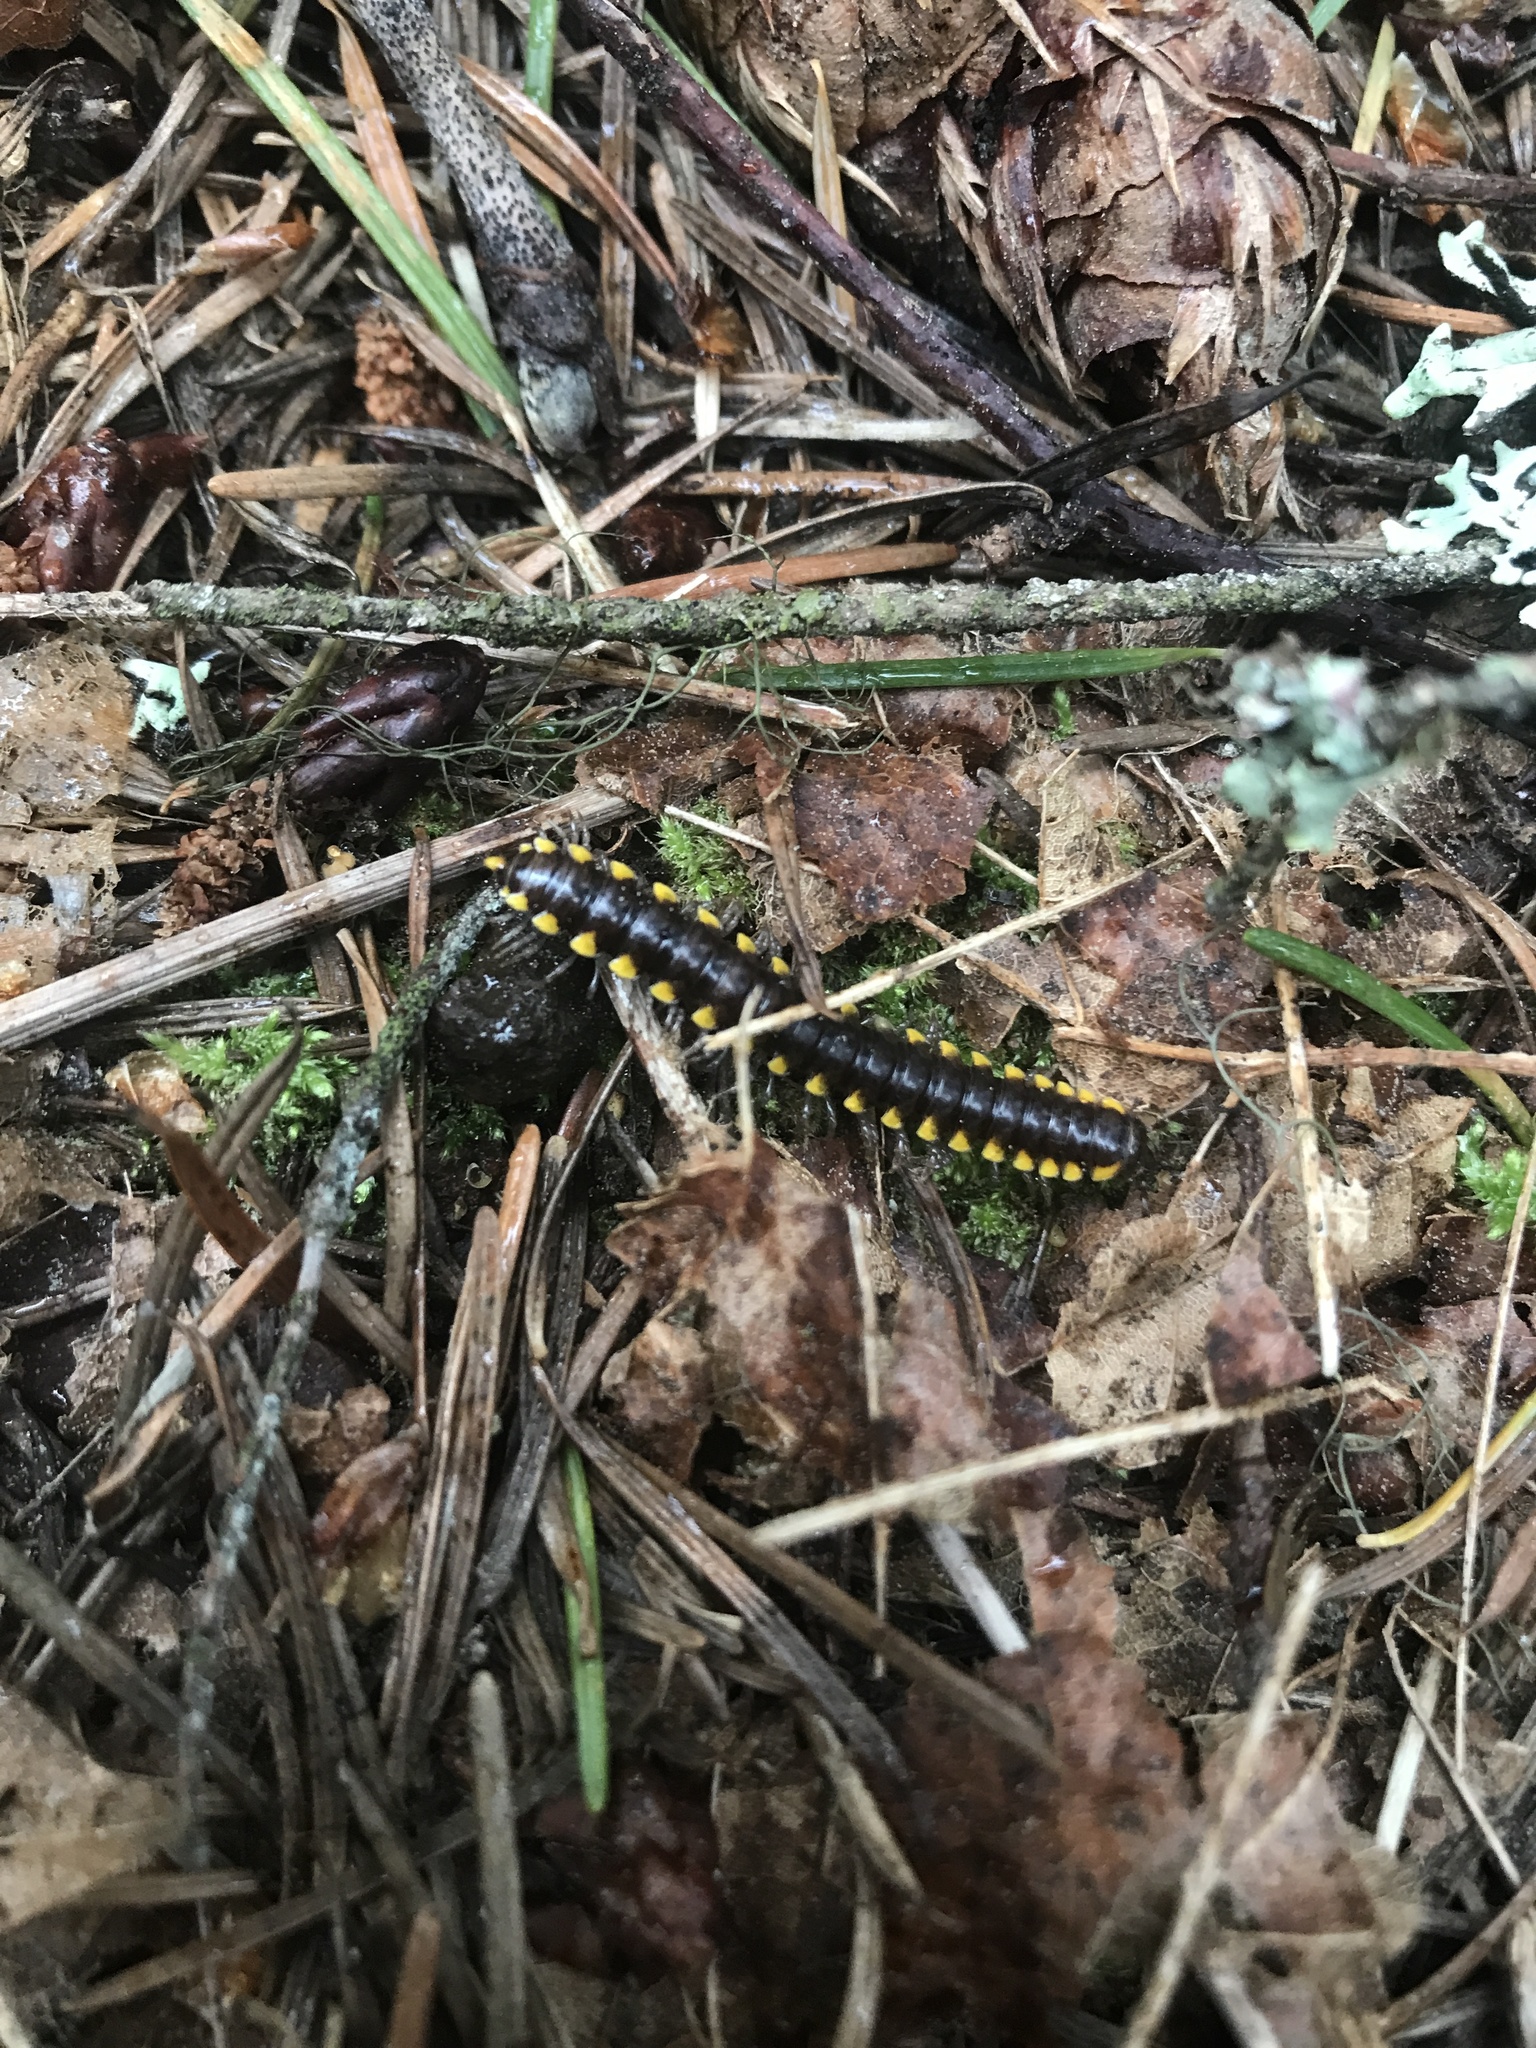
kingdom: Animalia
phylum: Arthropoda
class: Diplopoda
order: Polydesmida
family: Xystodesmidae
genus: Harpaphe
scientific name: Harpaphe haydeniana
